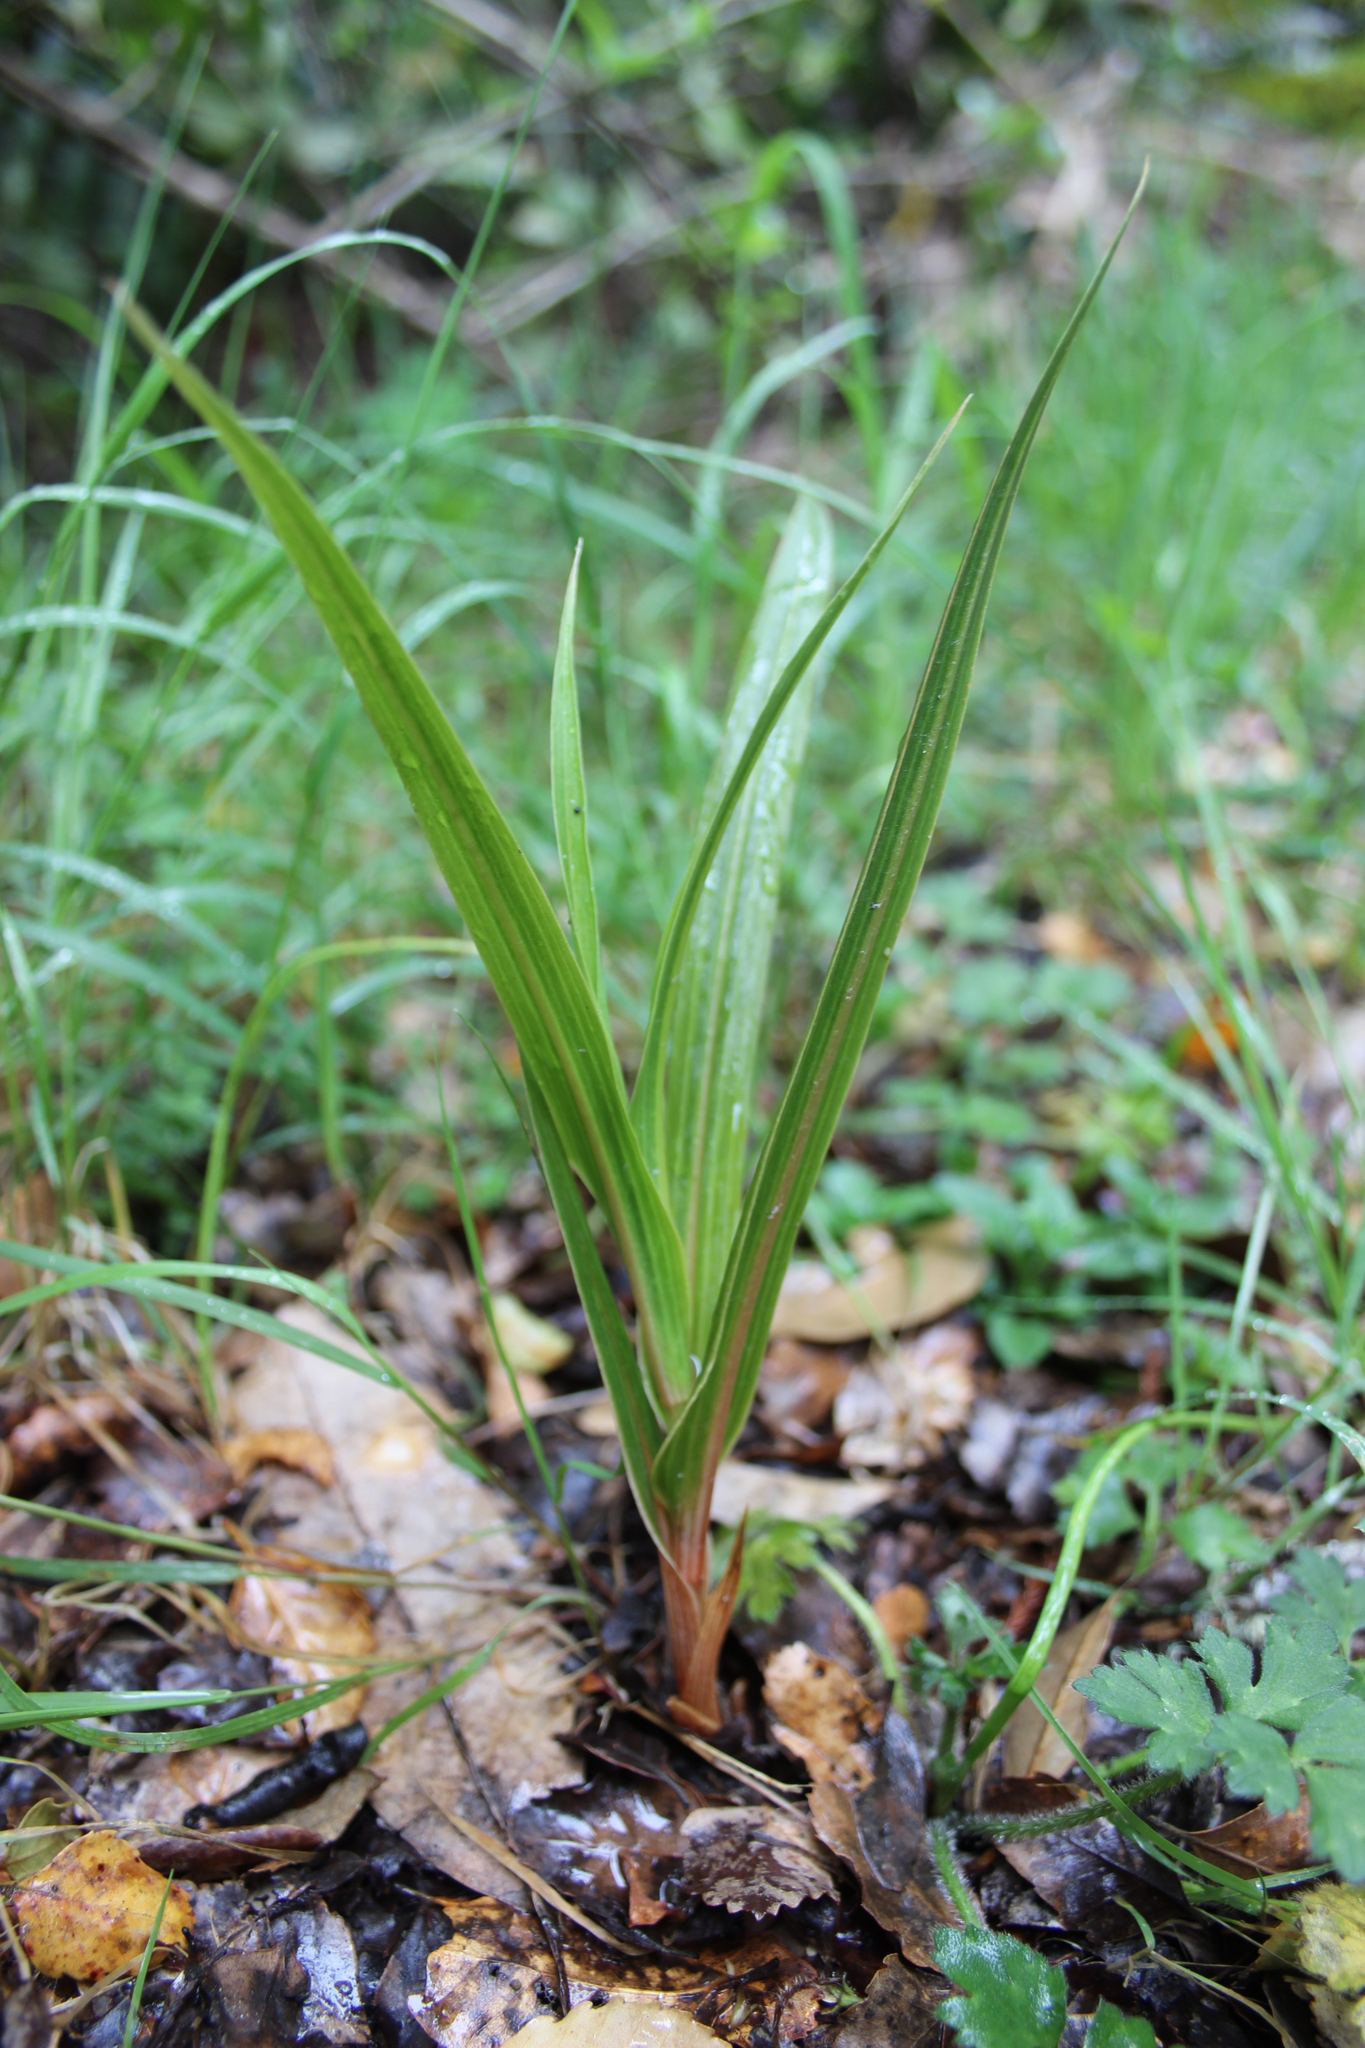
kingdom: Plantae
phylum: Tracheophyta
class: Liliopsida
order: Asparagales
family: Orchidaceae
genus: Pterostylis
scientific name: Pterostylis cardiostigma
